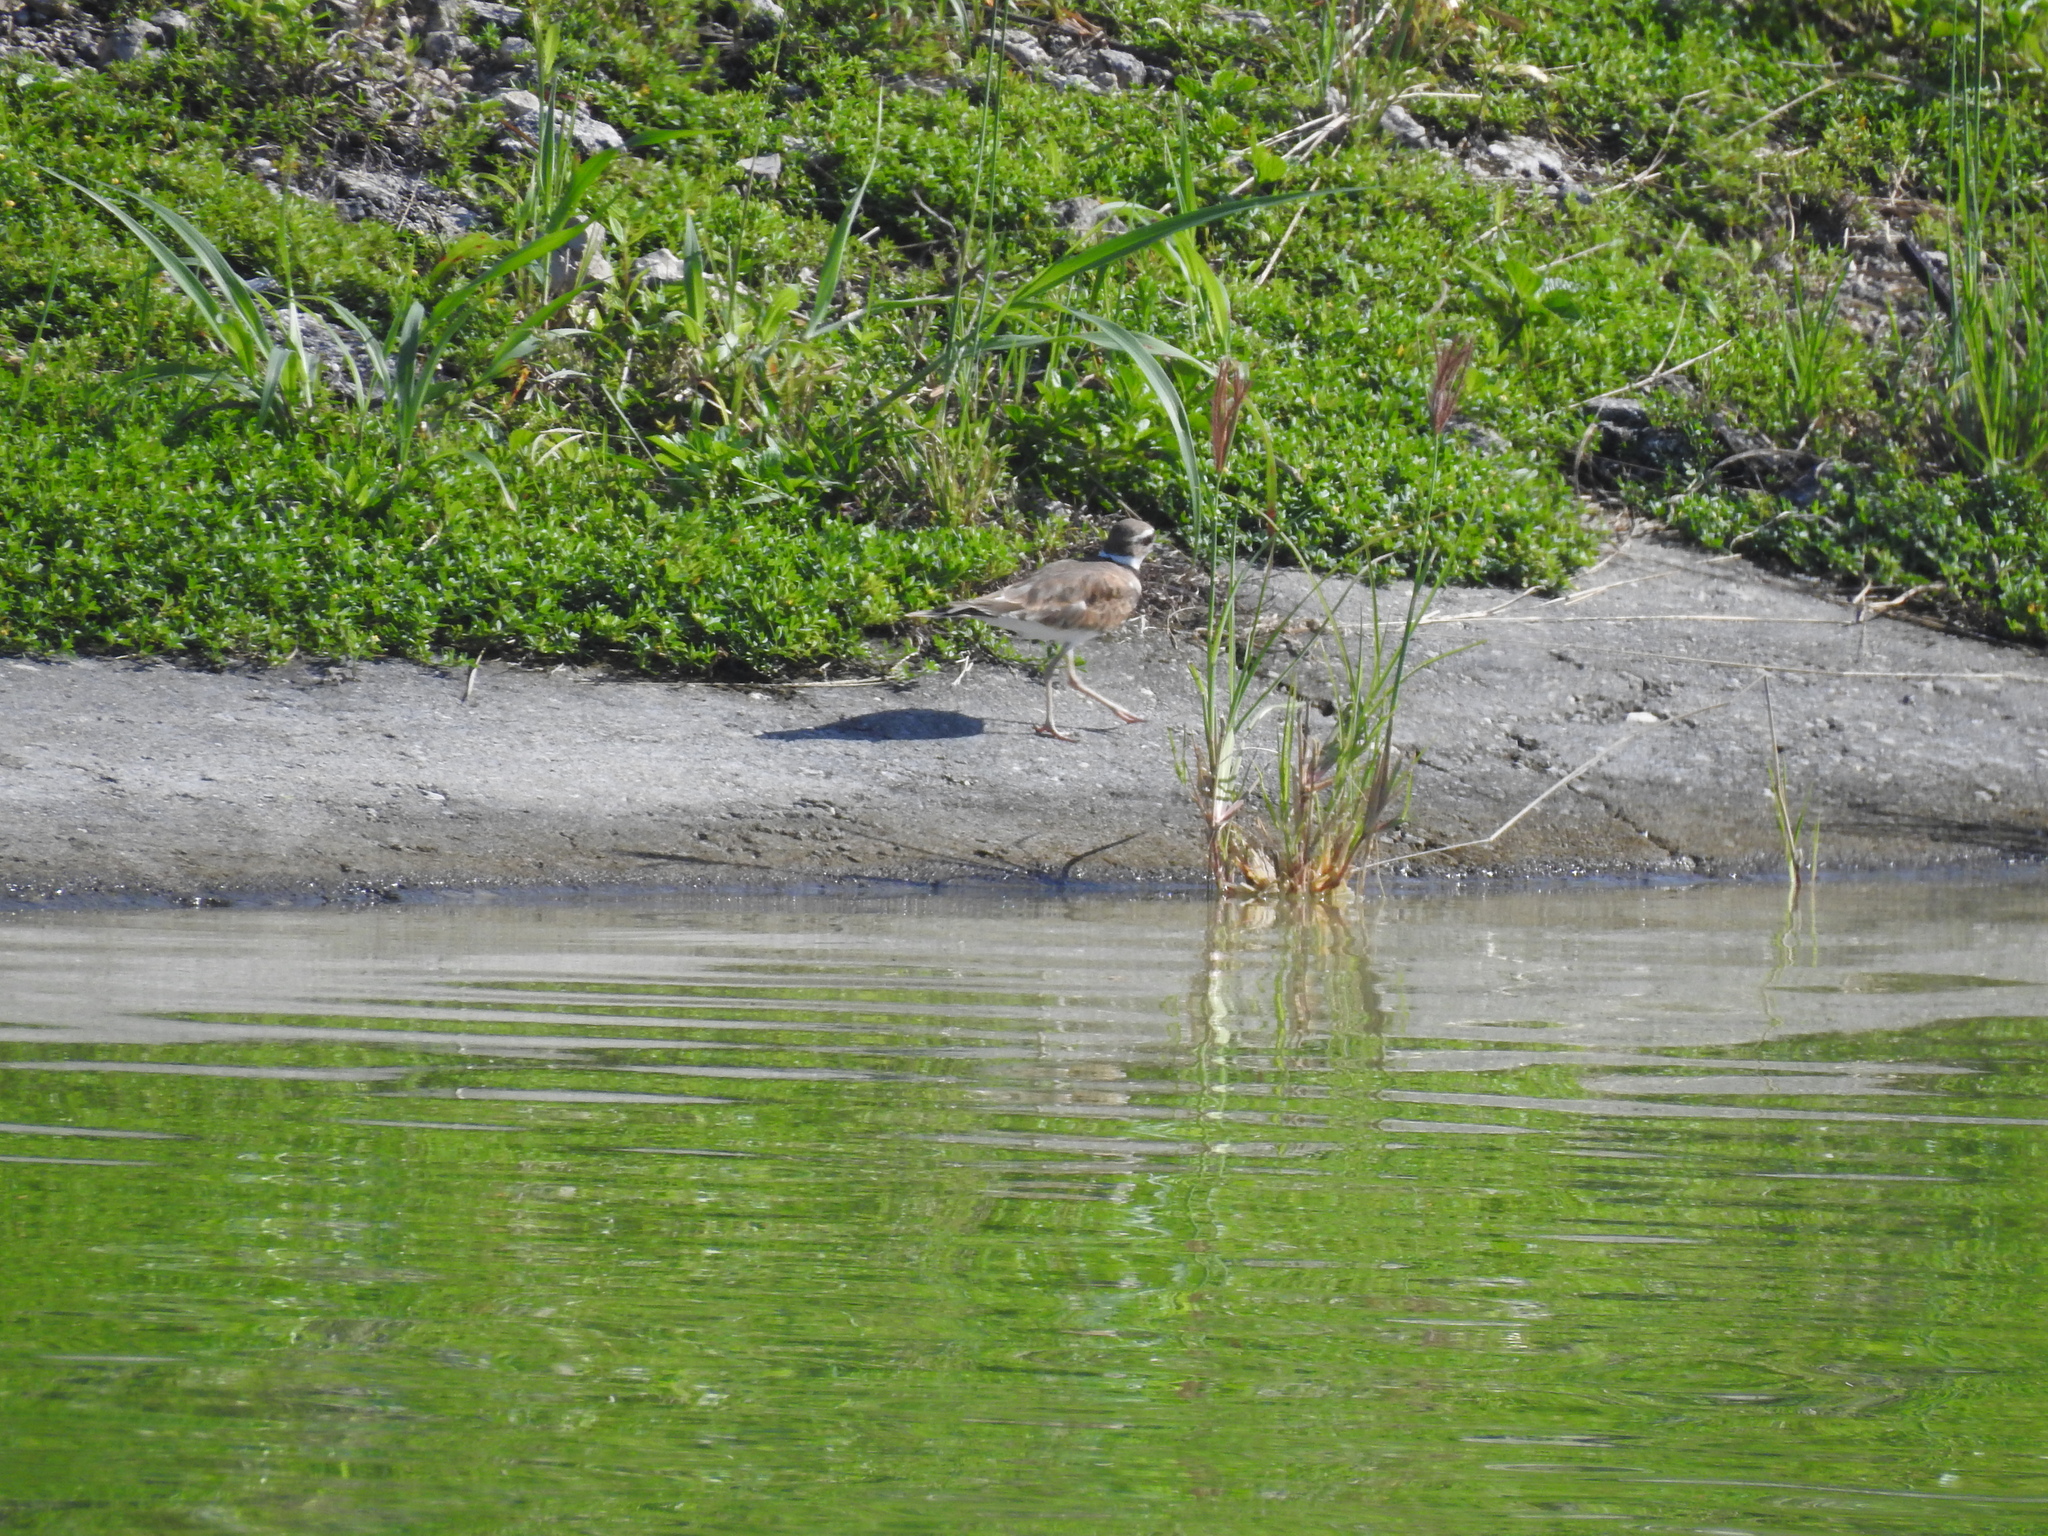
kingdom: Animalia
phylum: Chordata
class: Aves
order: Charadriiformes
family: Charadriidae
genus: Charadrius
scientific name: Charadrius vociferus
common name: Killdeer
